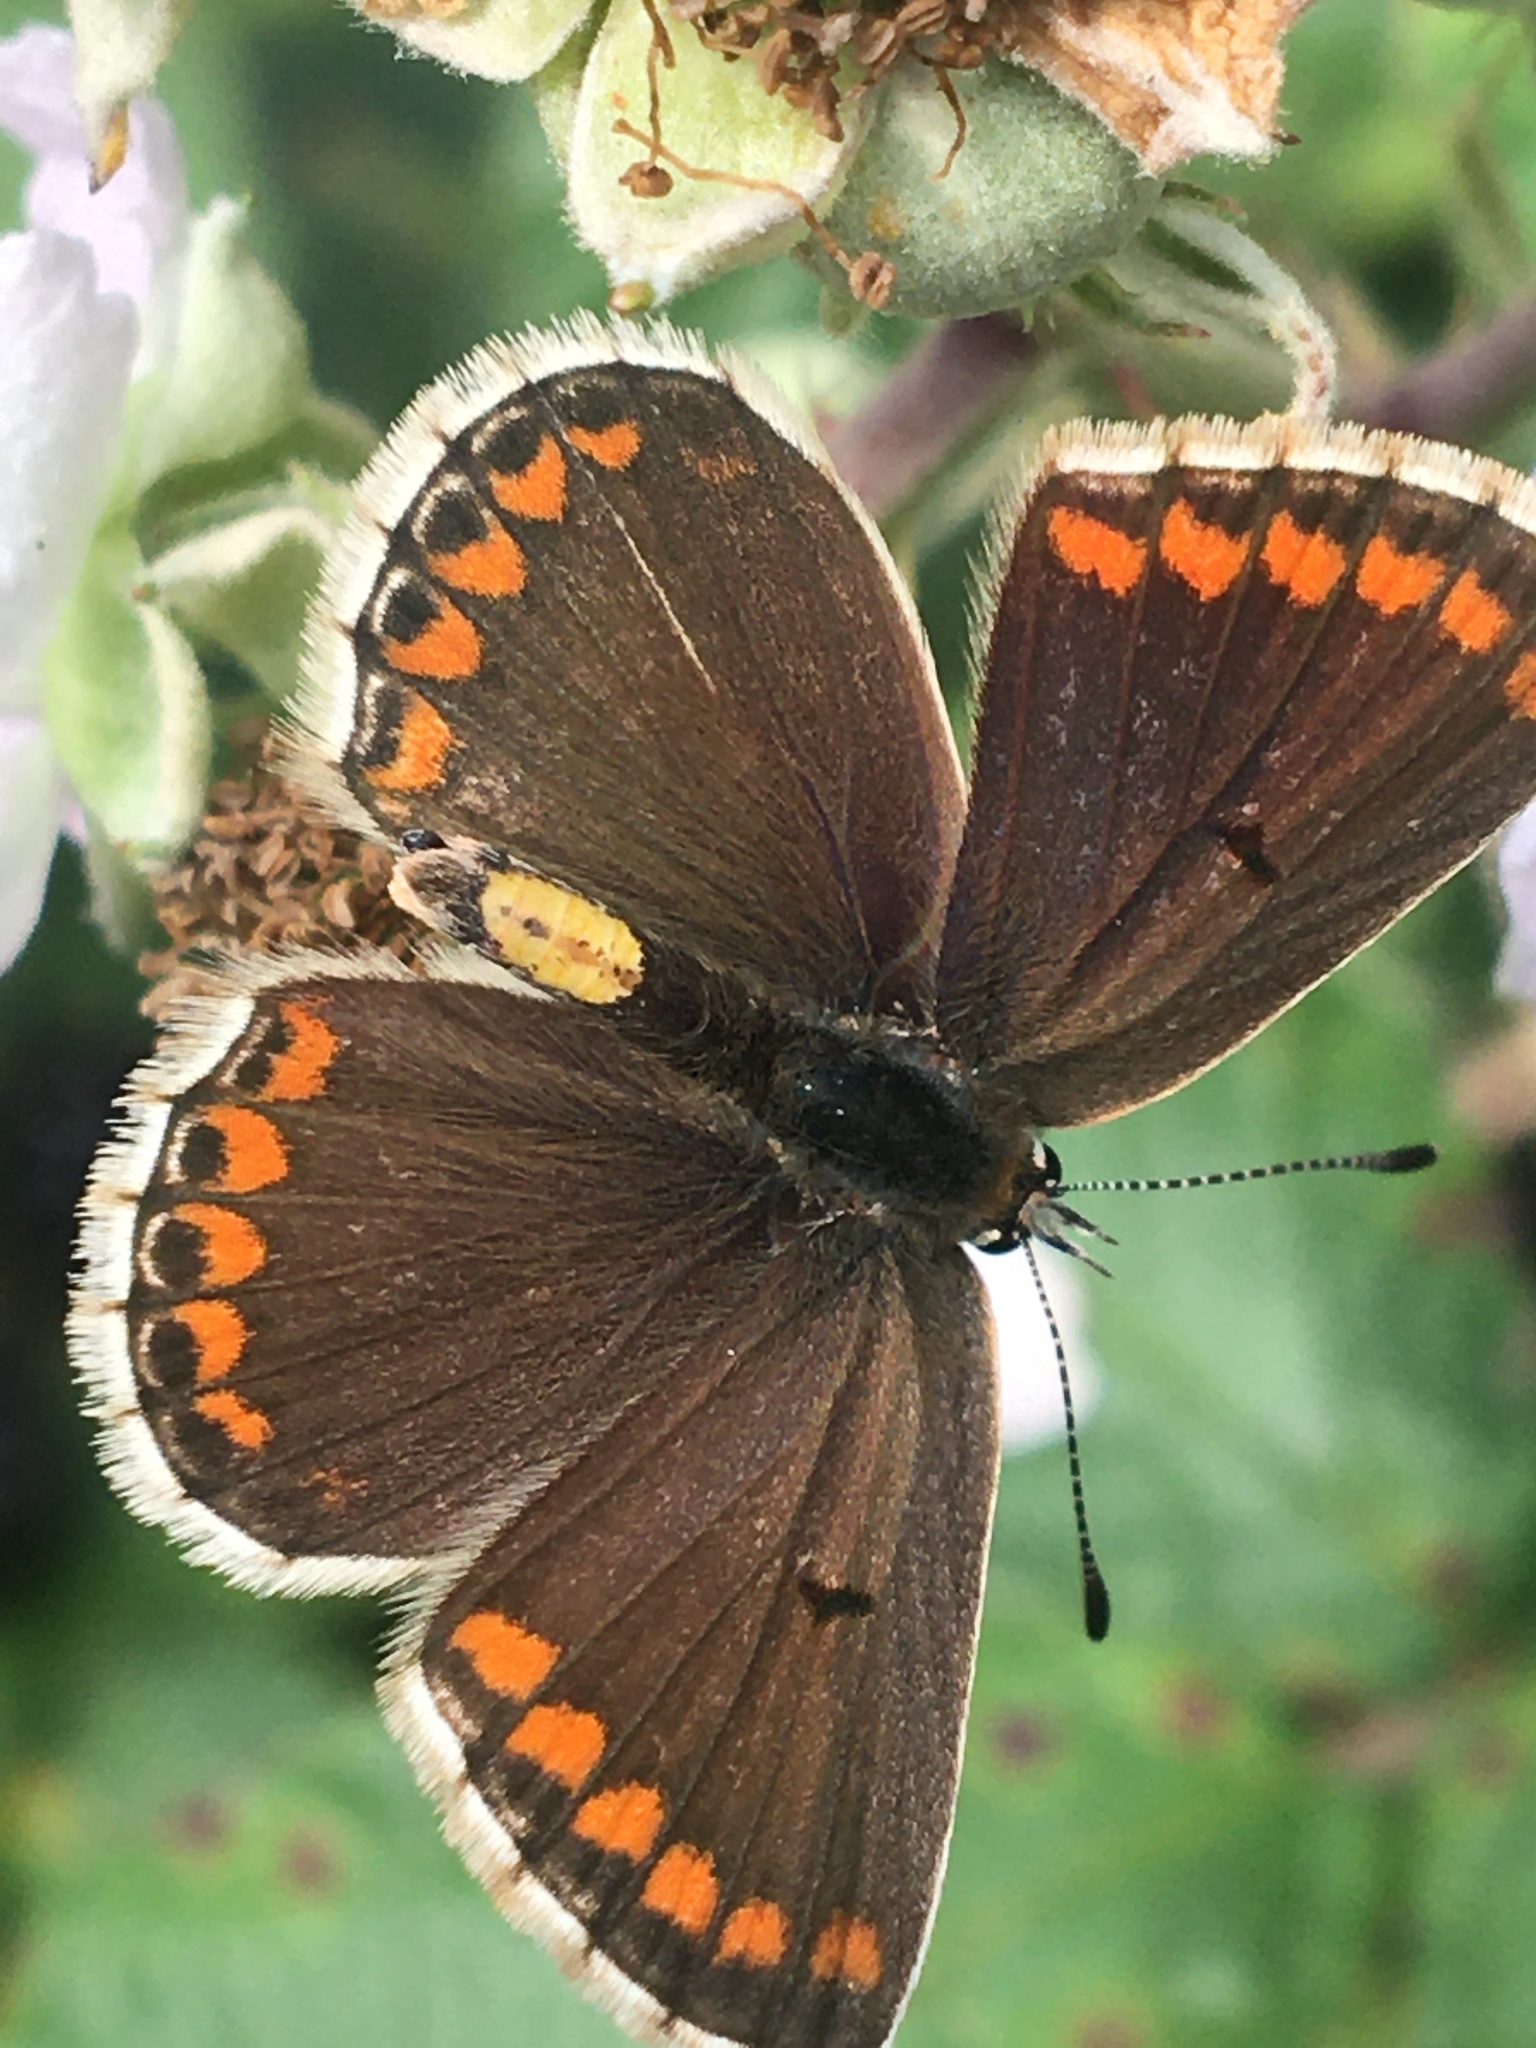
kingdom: Animalia
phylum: Arthropoda
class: Insecta
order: Lepidoptera
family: Lycaenidae
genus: Aricia
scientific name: Aricia agestis
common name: Brown argus
